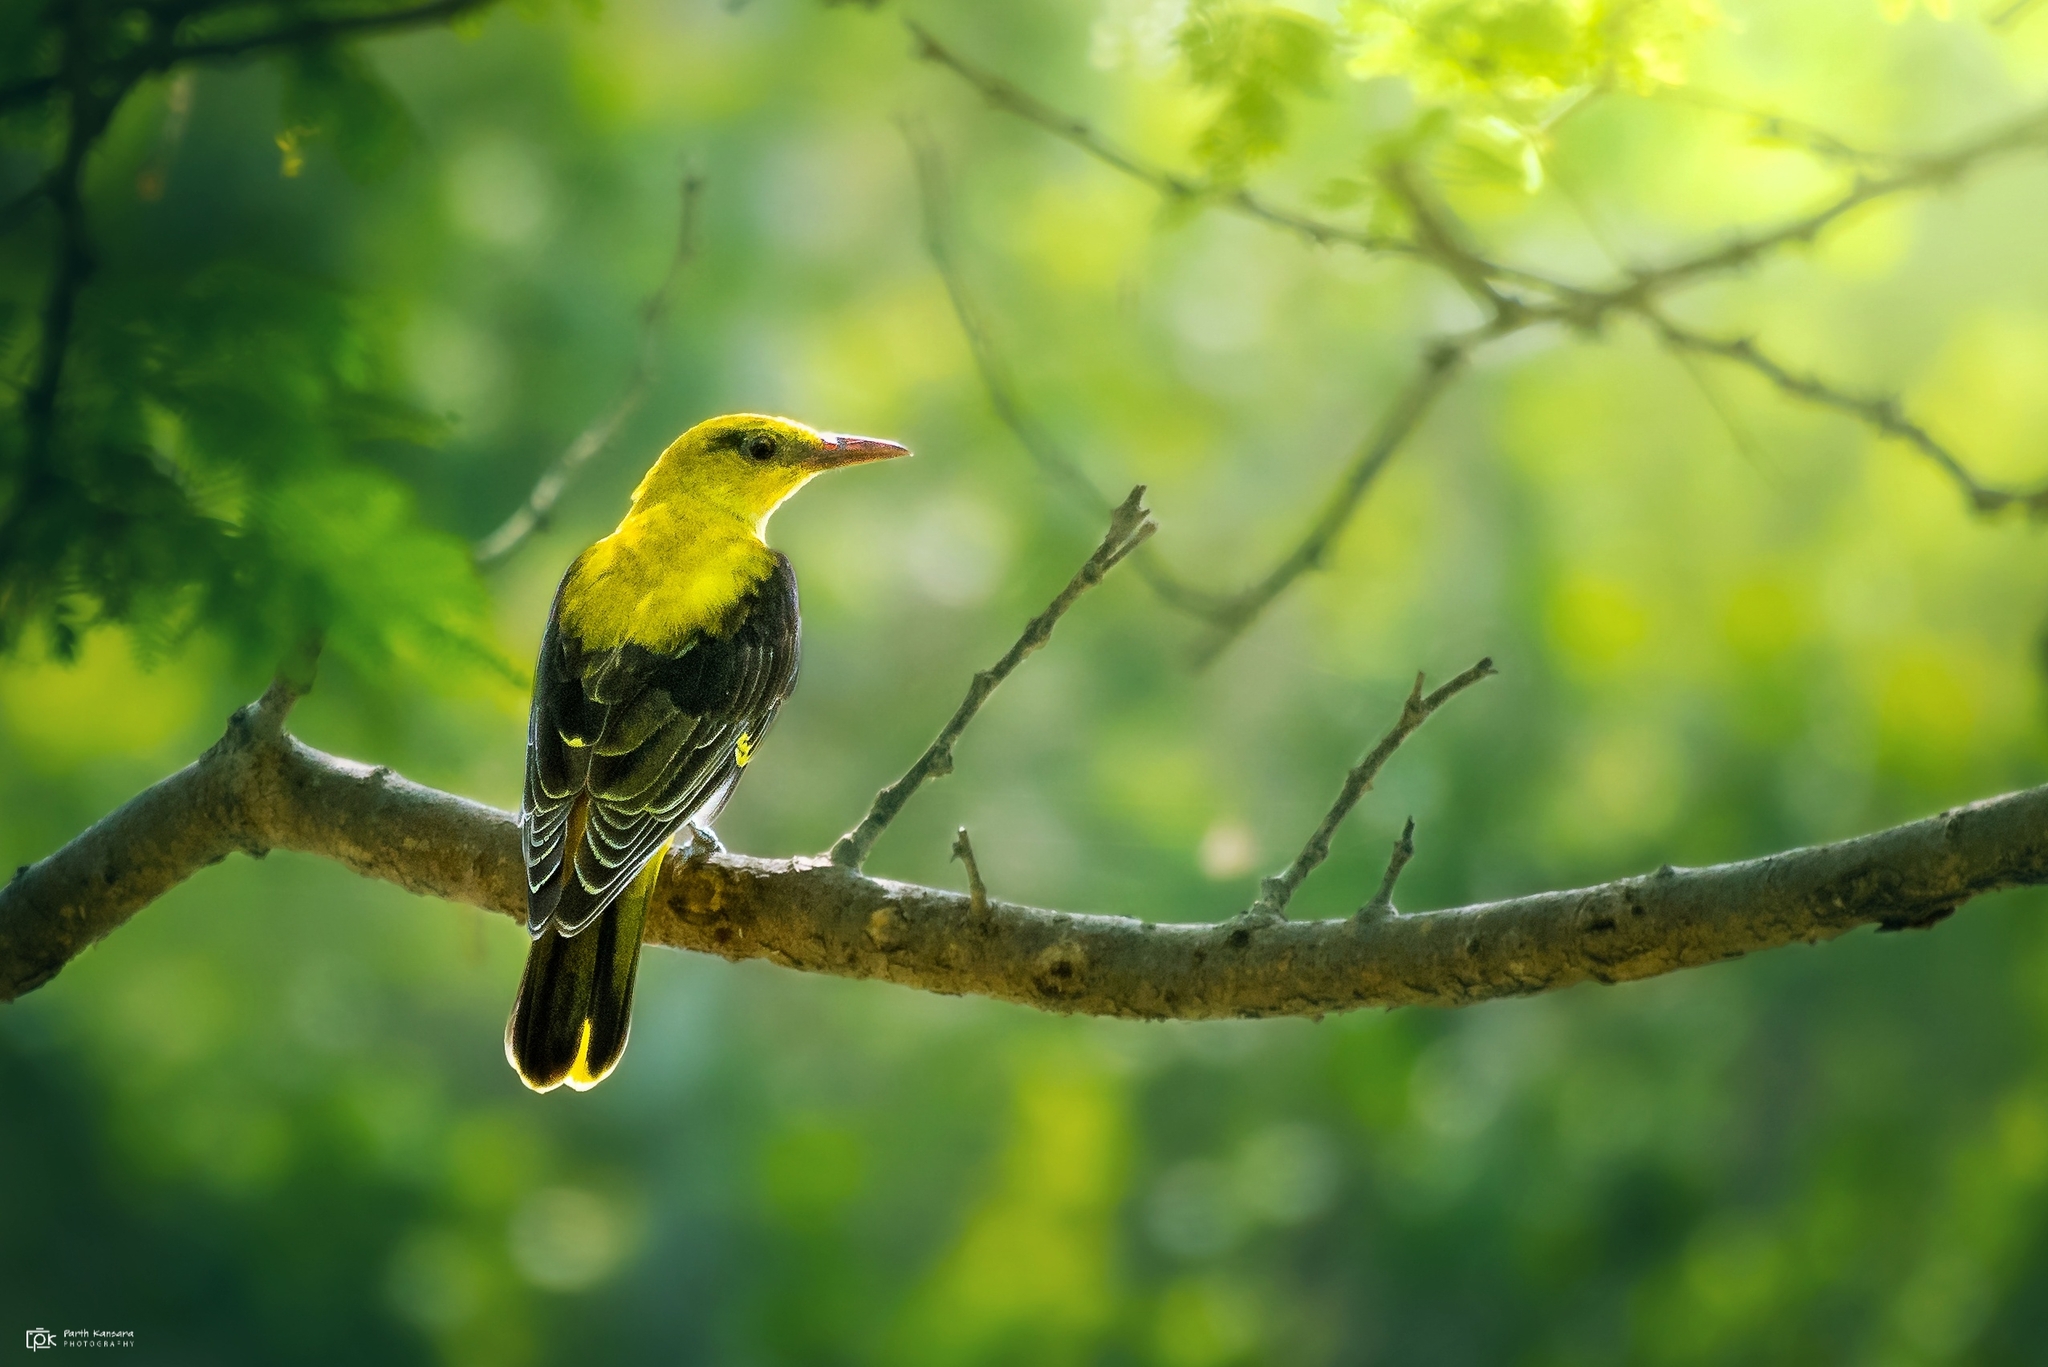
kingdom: Animalia
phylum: Chordata
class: Aves
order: Passeriformes
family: Oriolidae
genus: Oriolus
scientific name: Oriolus kundoo
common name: Indian golden oriole
